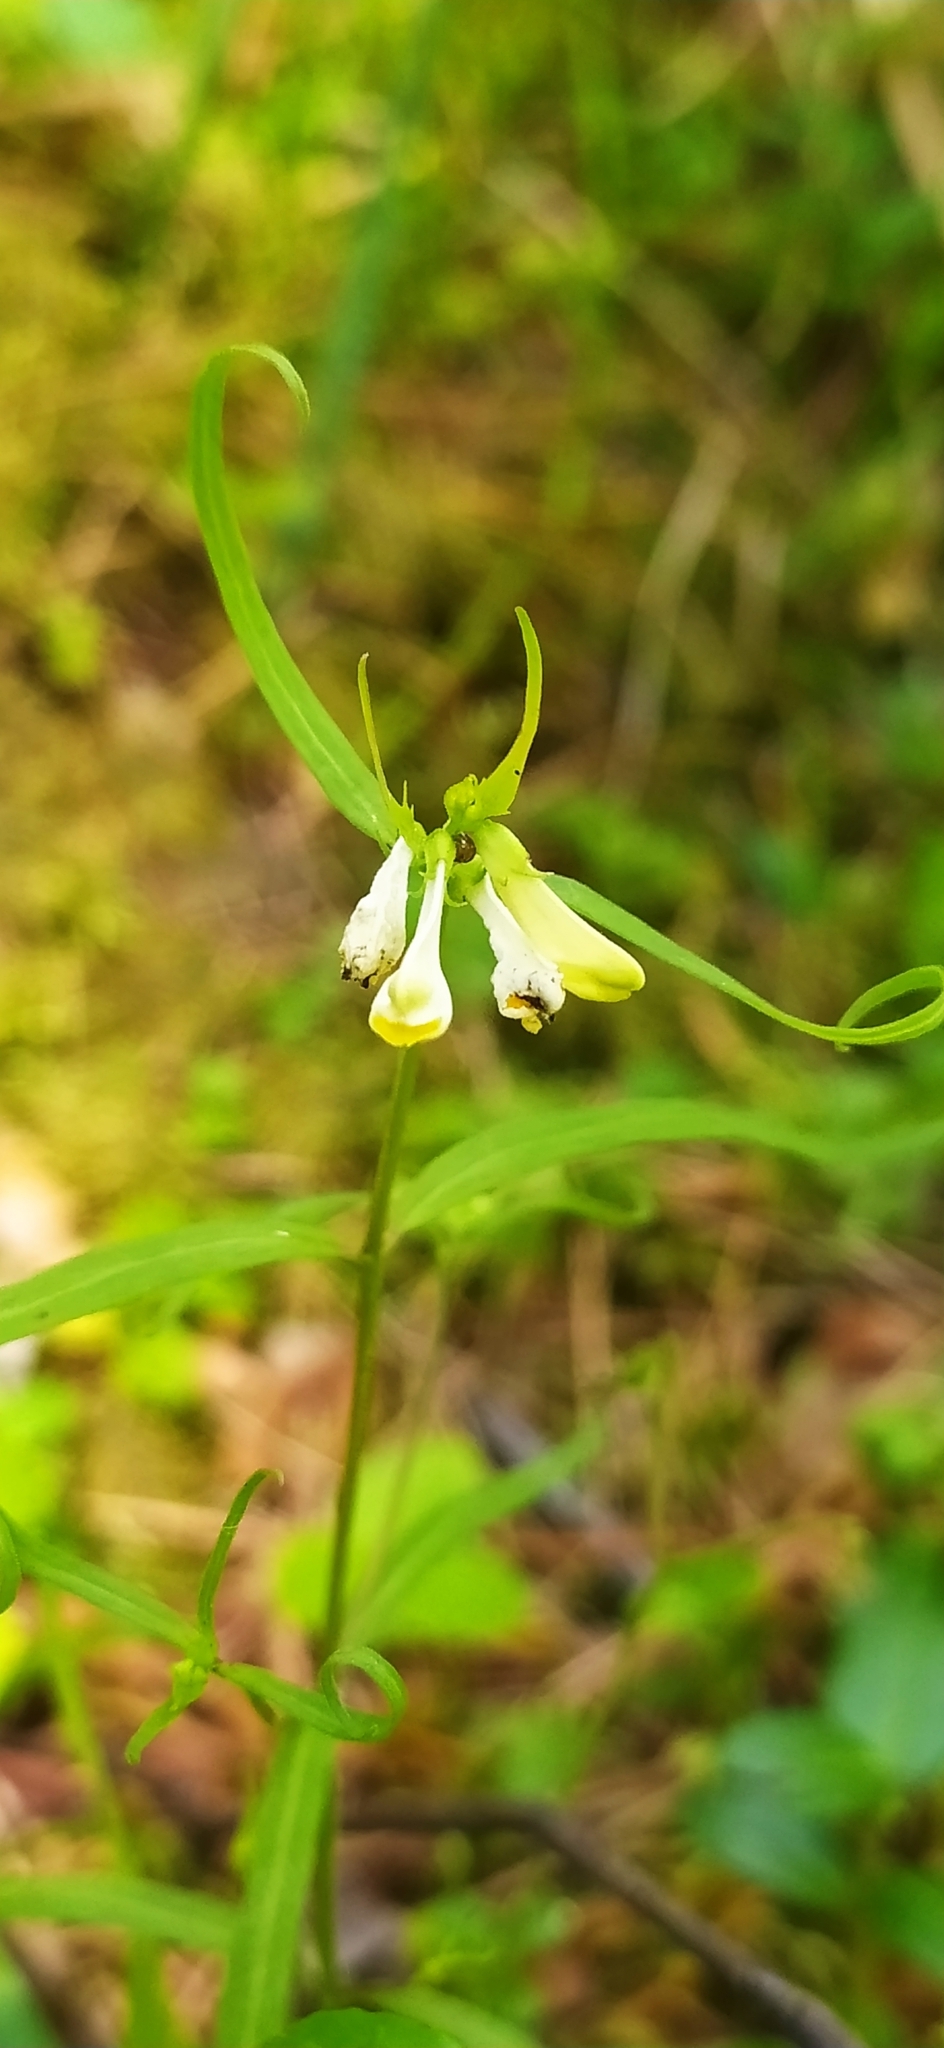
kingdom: Plantae
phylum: Tracheophyta
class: Magnoliopsida
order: Lamiales
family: Orobanchaceae
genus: Melampyrum
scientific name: Melampyrum pratense
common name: Common cow-wheat
